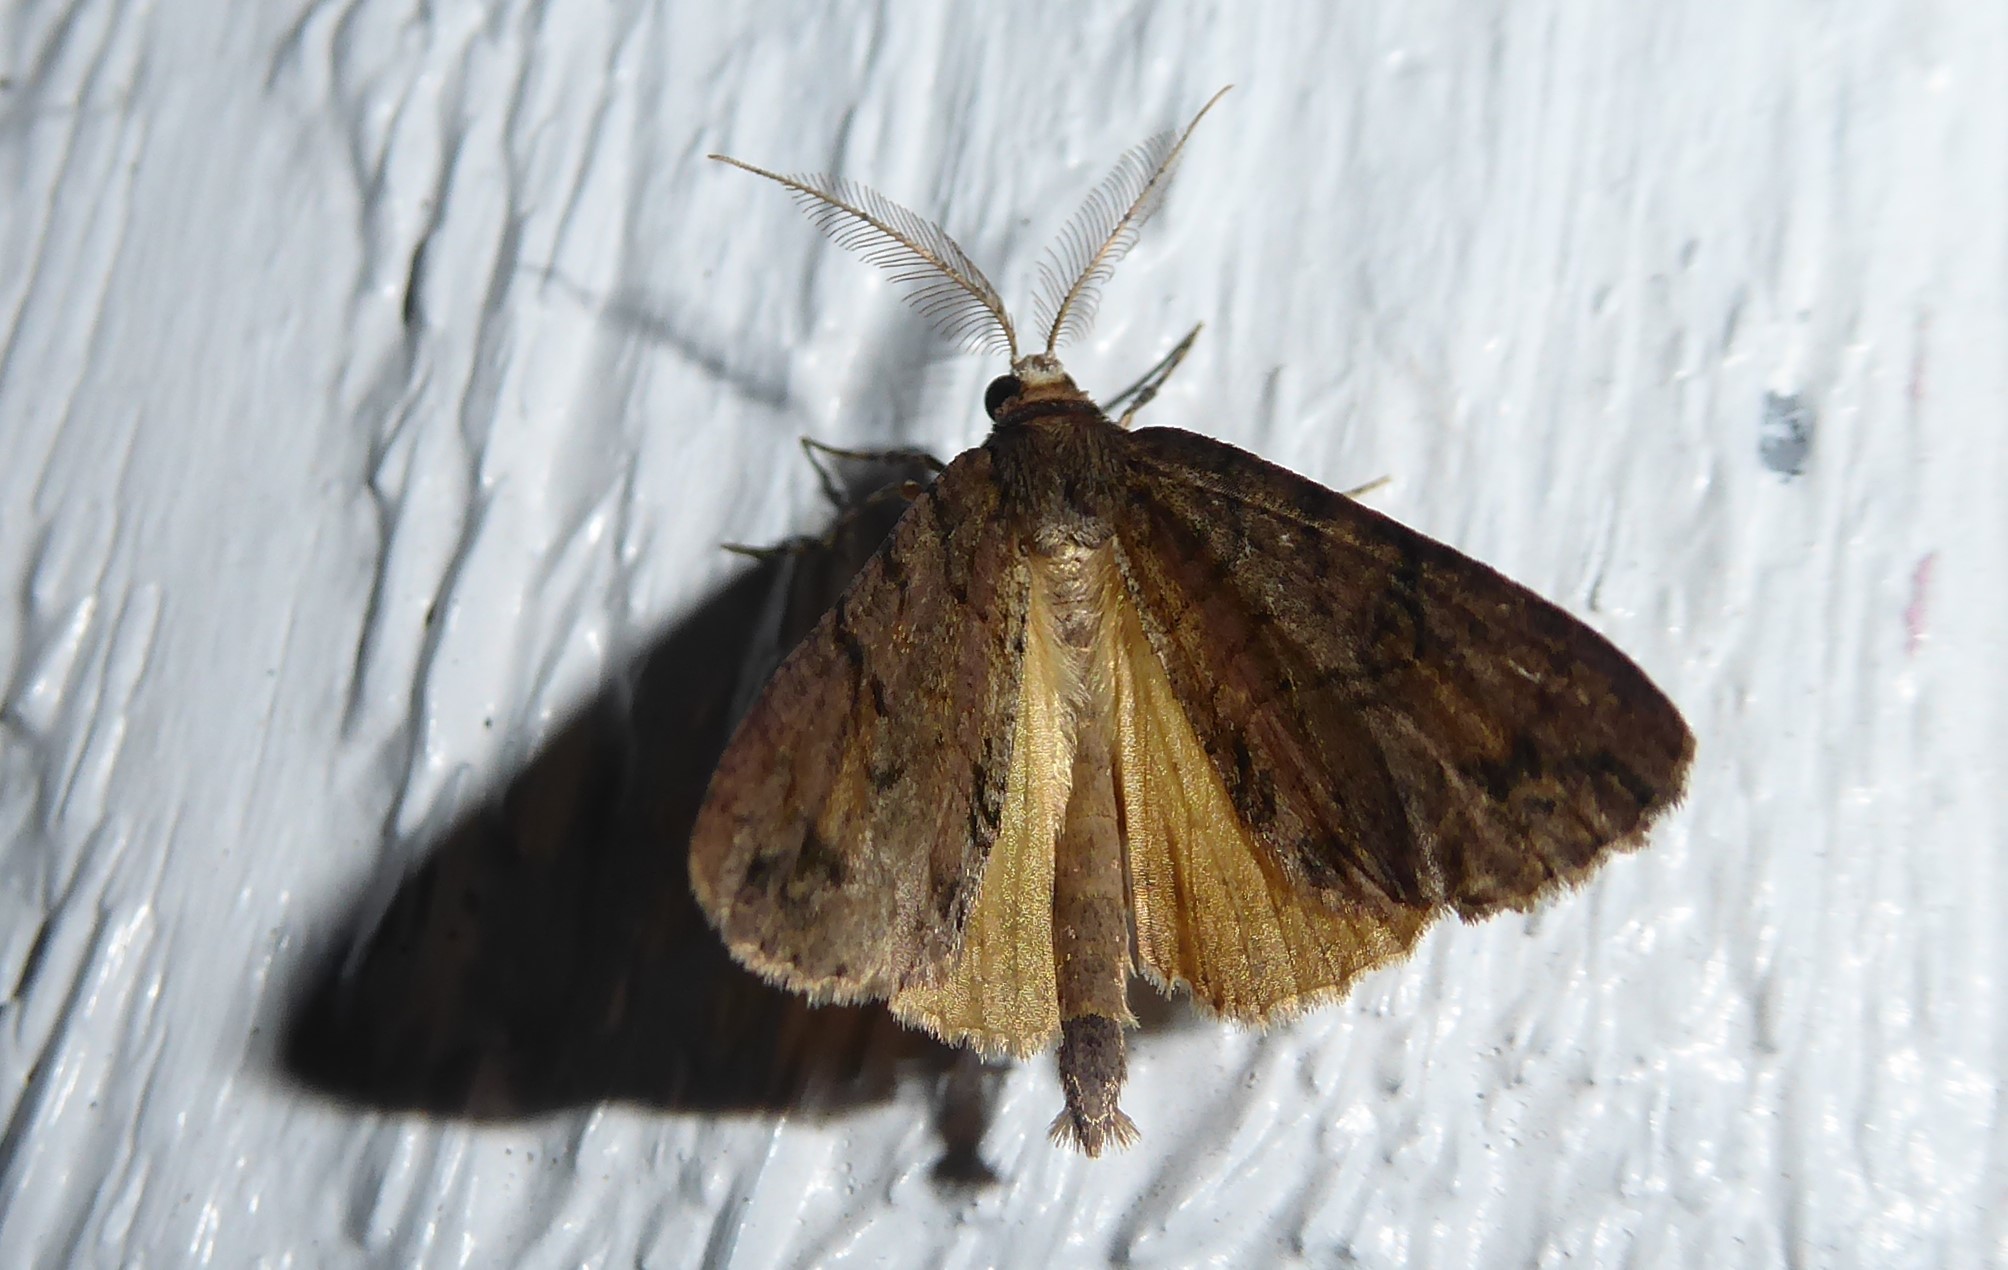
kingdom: Animalia
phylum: Arthropoda
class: Insecta
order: Lepidoptera
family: Geometridae
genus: Pseudocoremia
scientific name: Pseudocoremia suavis
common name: Common forest looper
